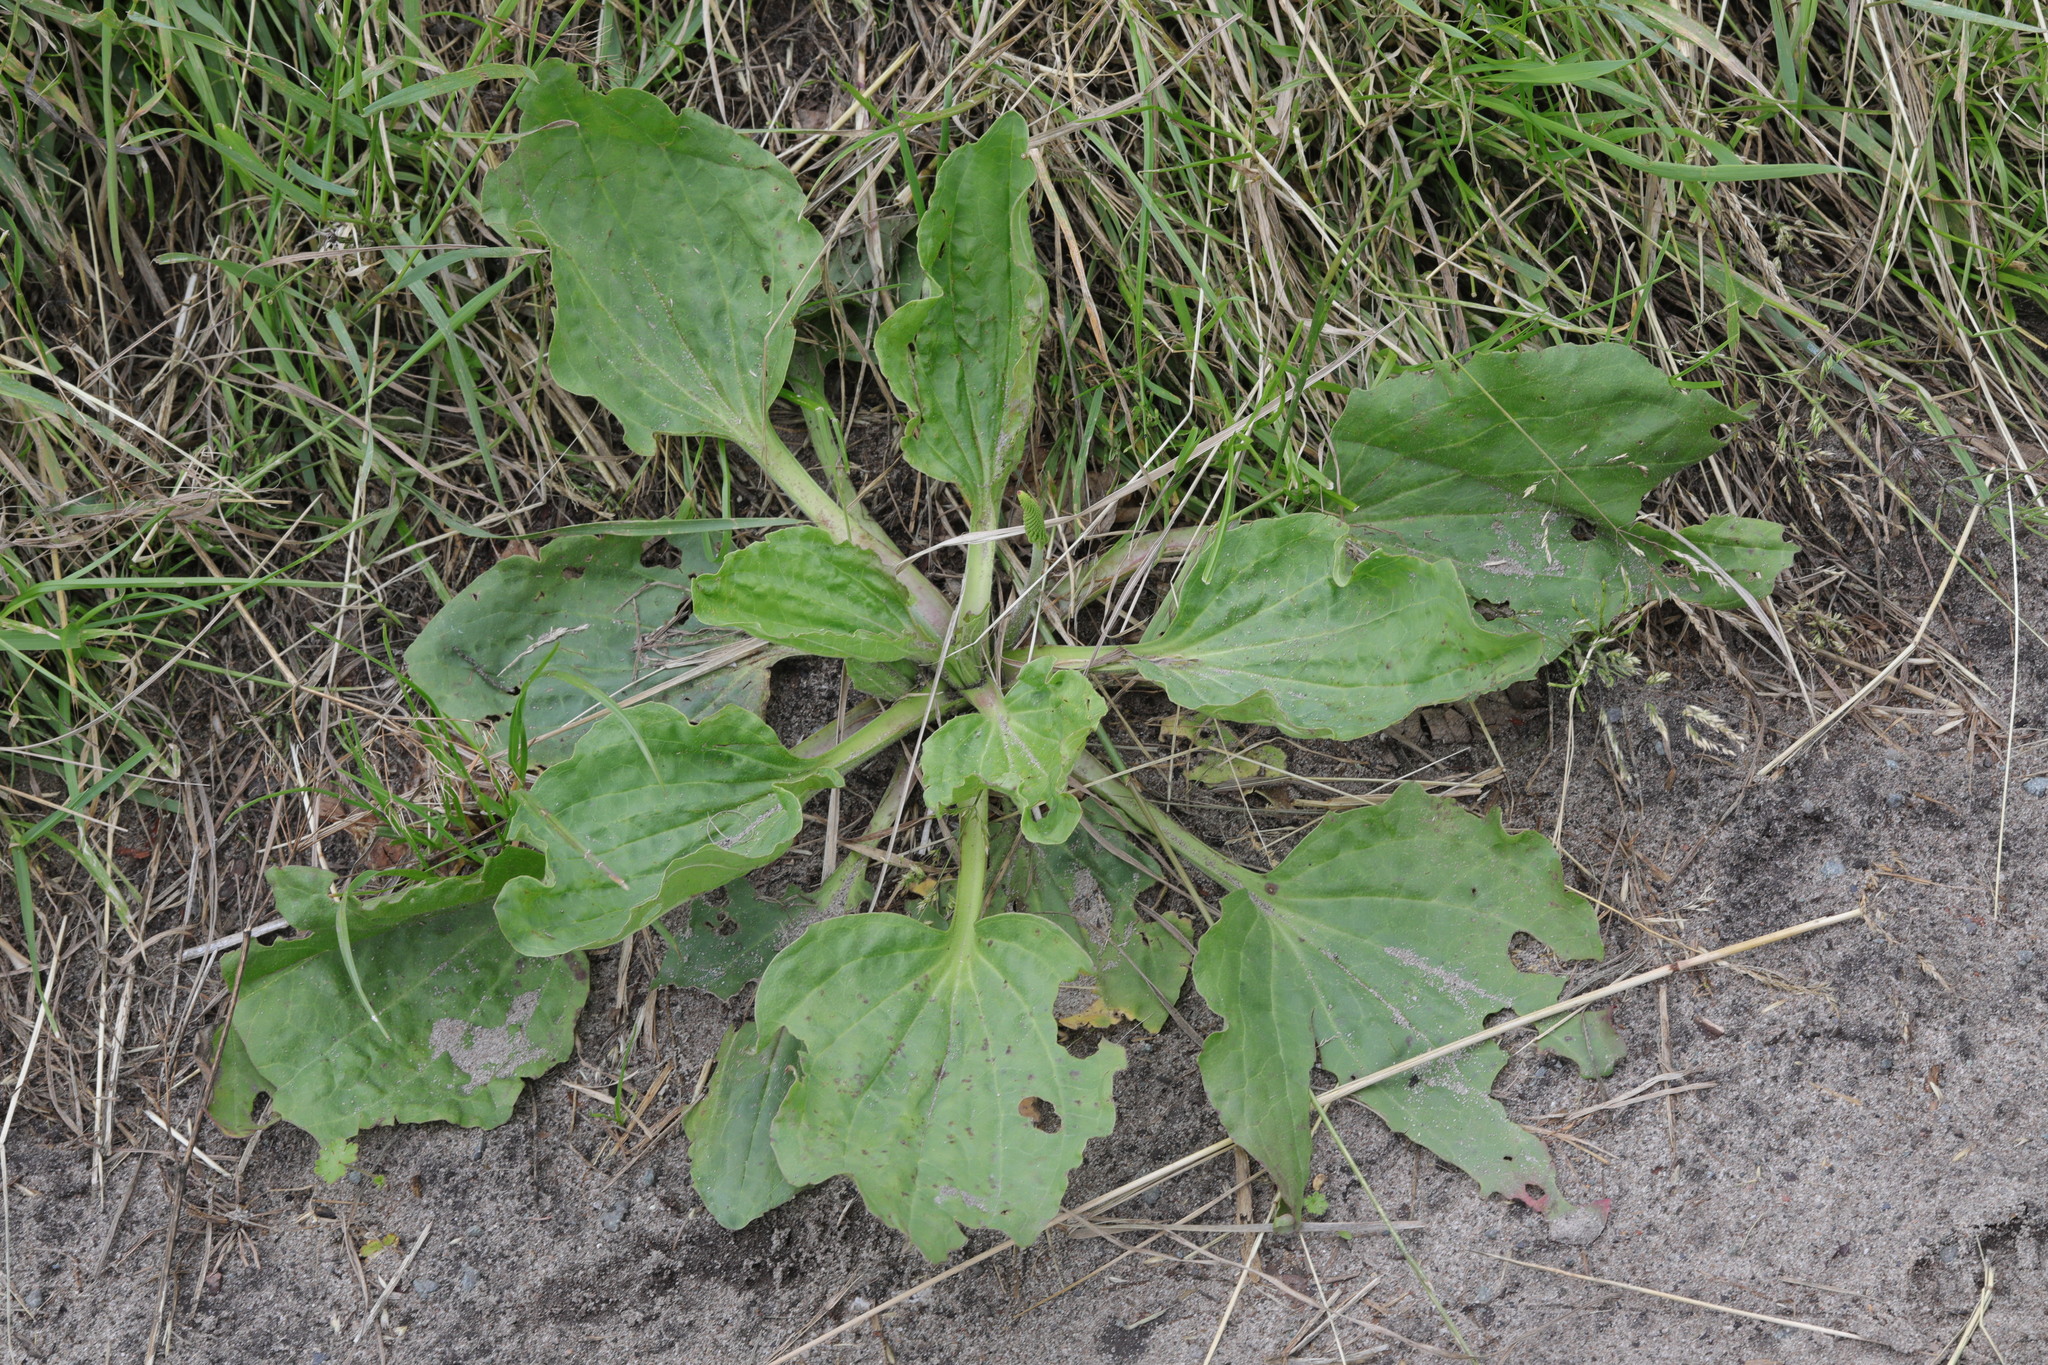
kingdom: Plantae
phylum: Tracheophyta
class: Magnoliopsida
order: Lamiales
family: Plantaginaceae
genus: Plantago
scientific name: Plantago major
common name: Common plantain
